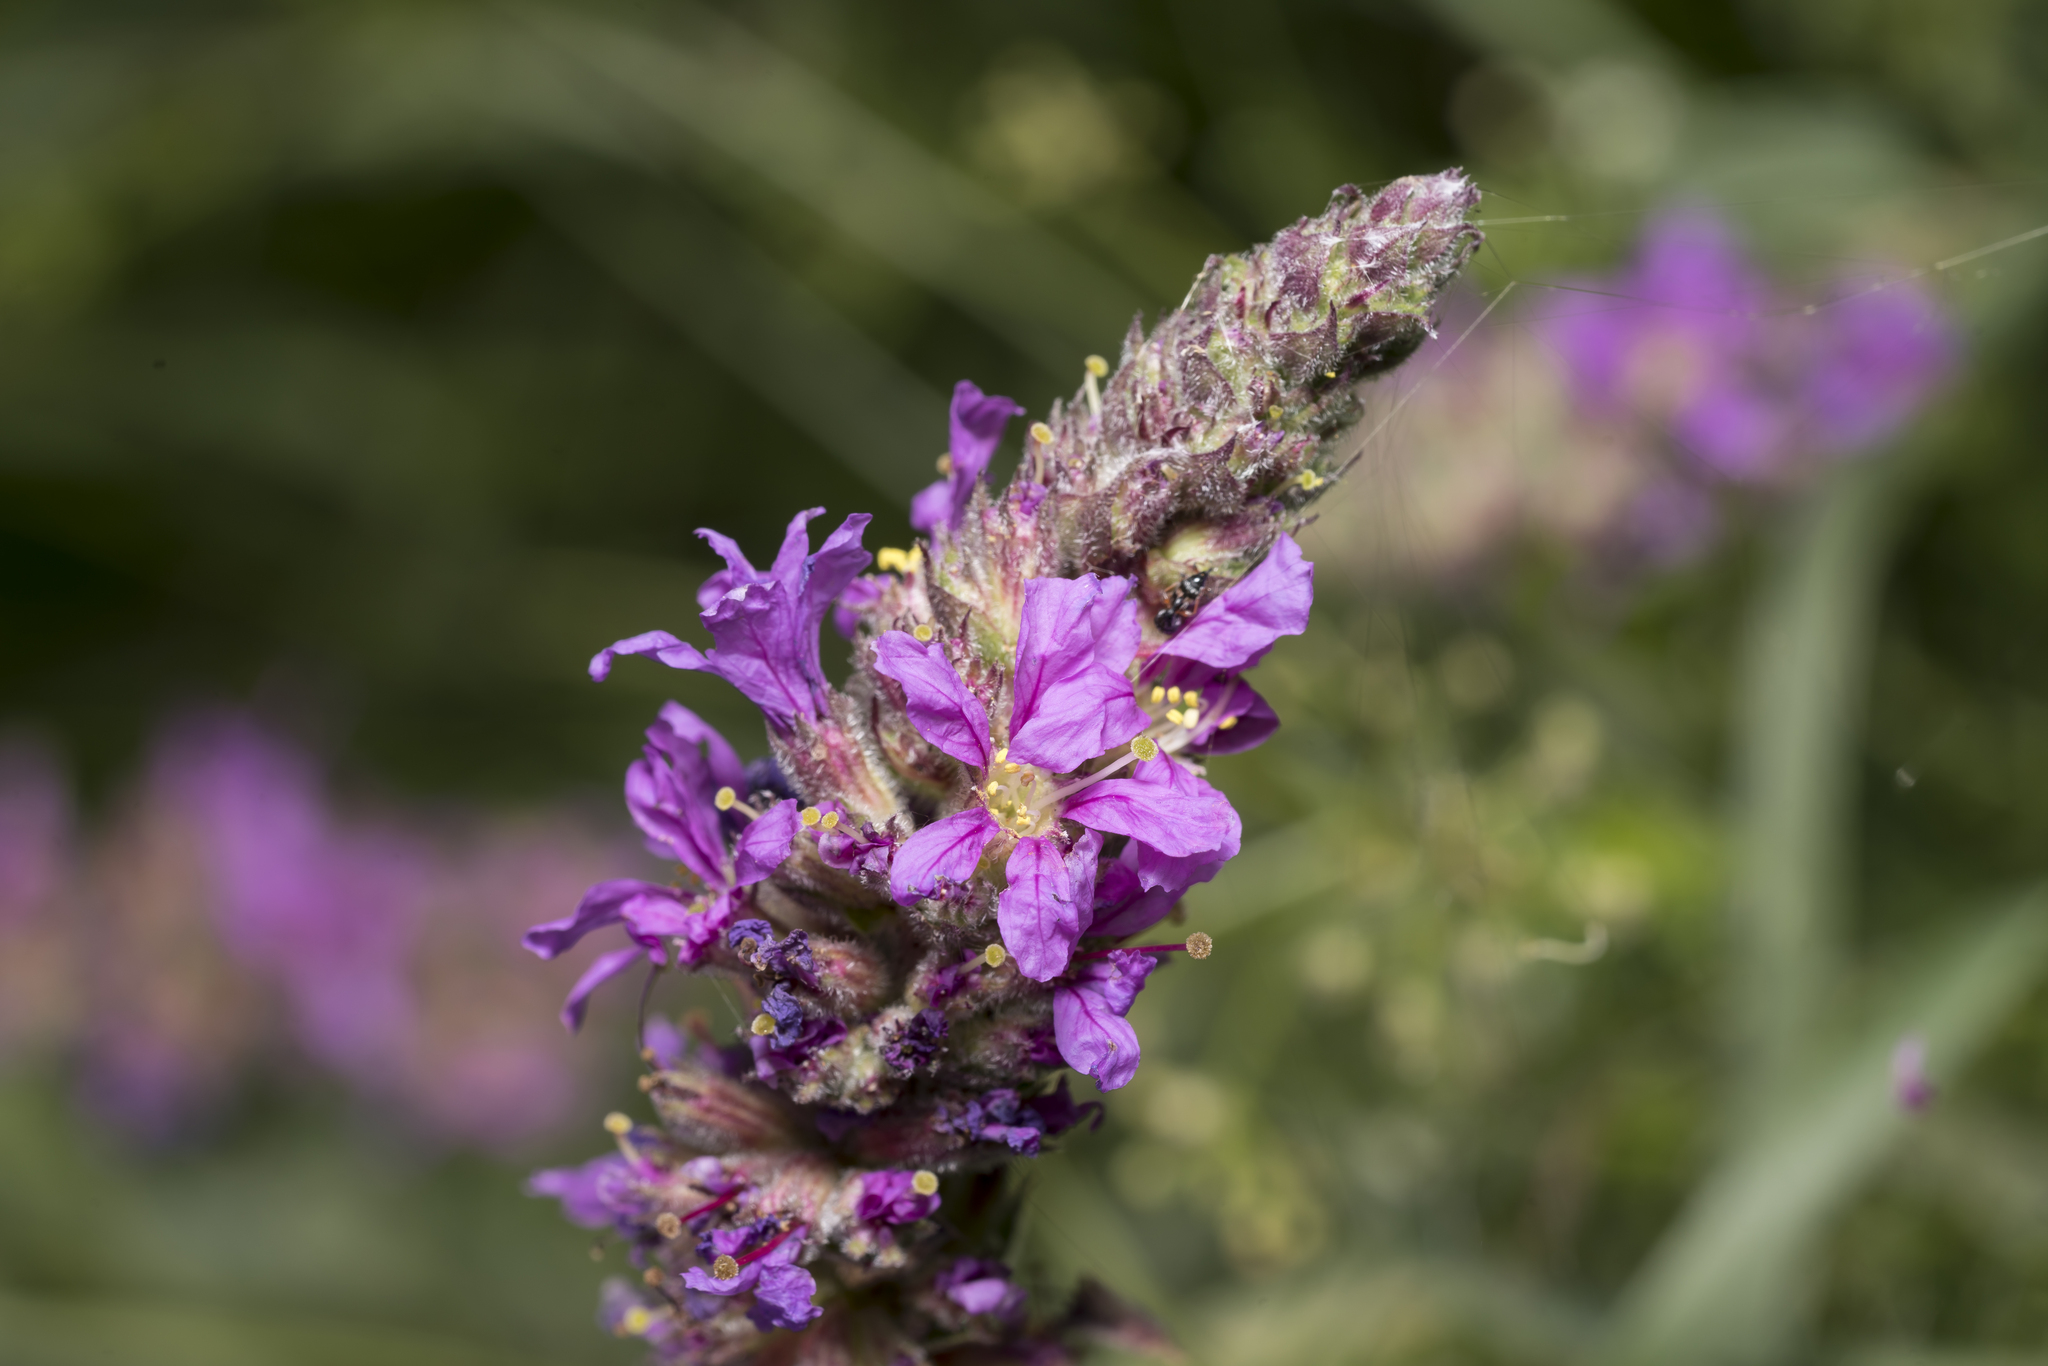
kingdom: Plantae
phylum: Tracheophyta
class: Magnoliopsida
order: Myrtales
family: Lythraceae
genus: Lythrum
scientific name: Lythrum salicaria
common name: Purple loosestrife
